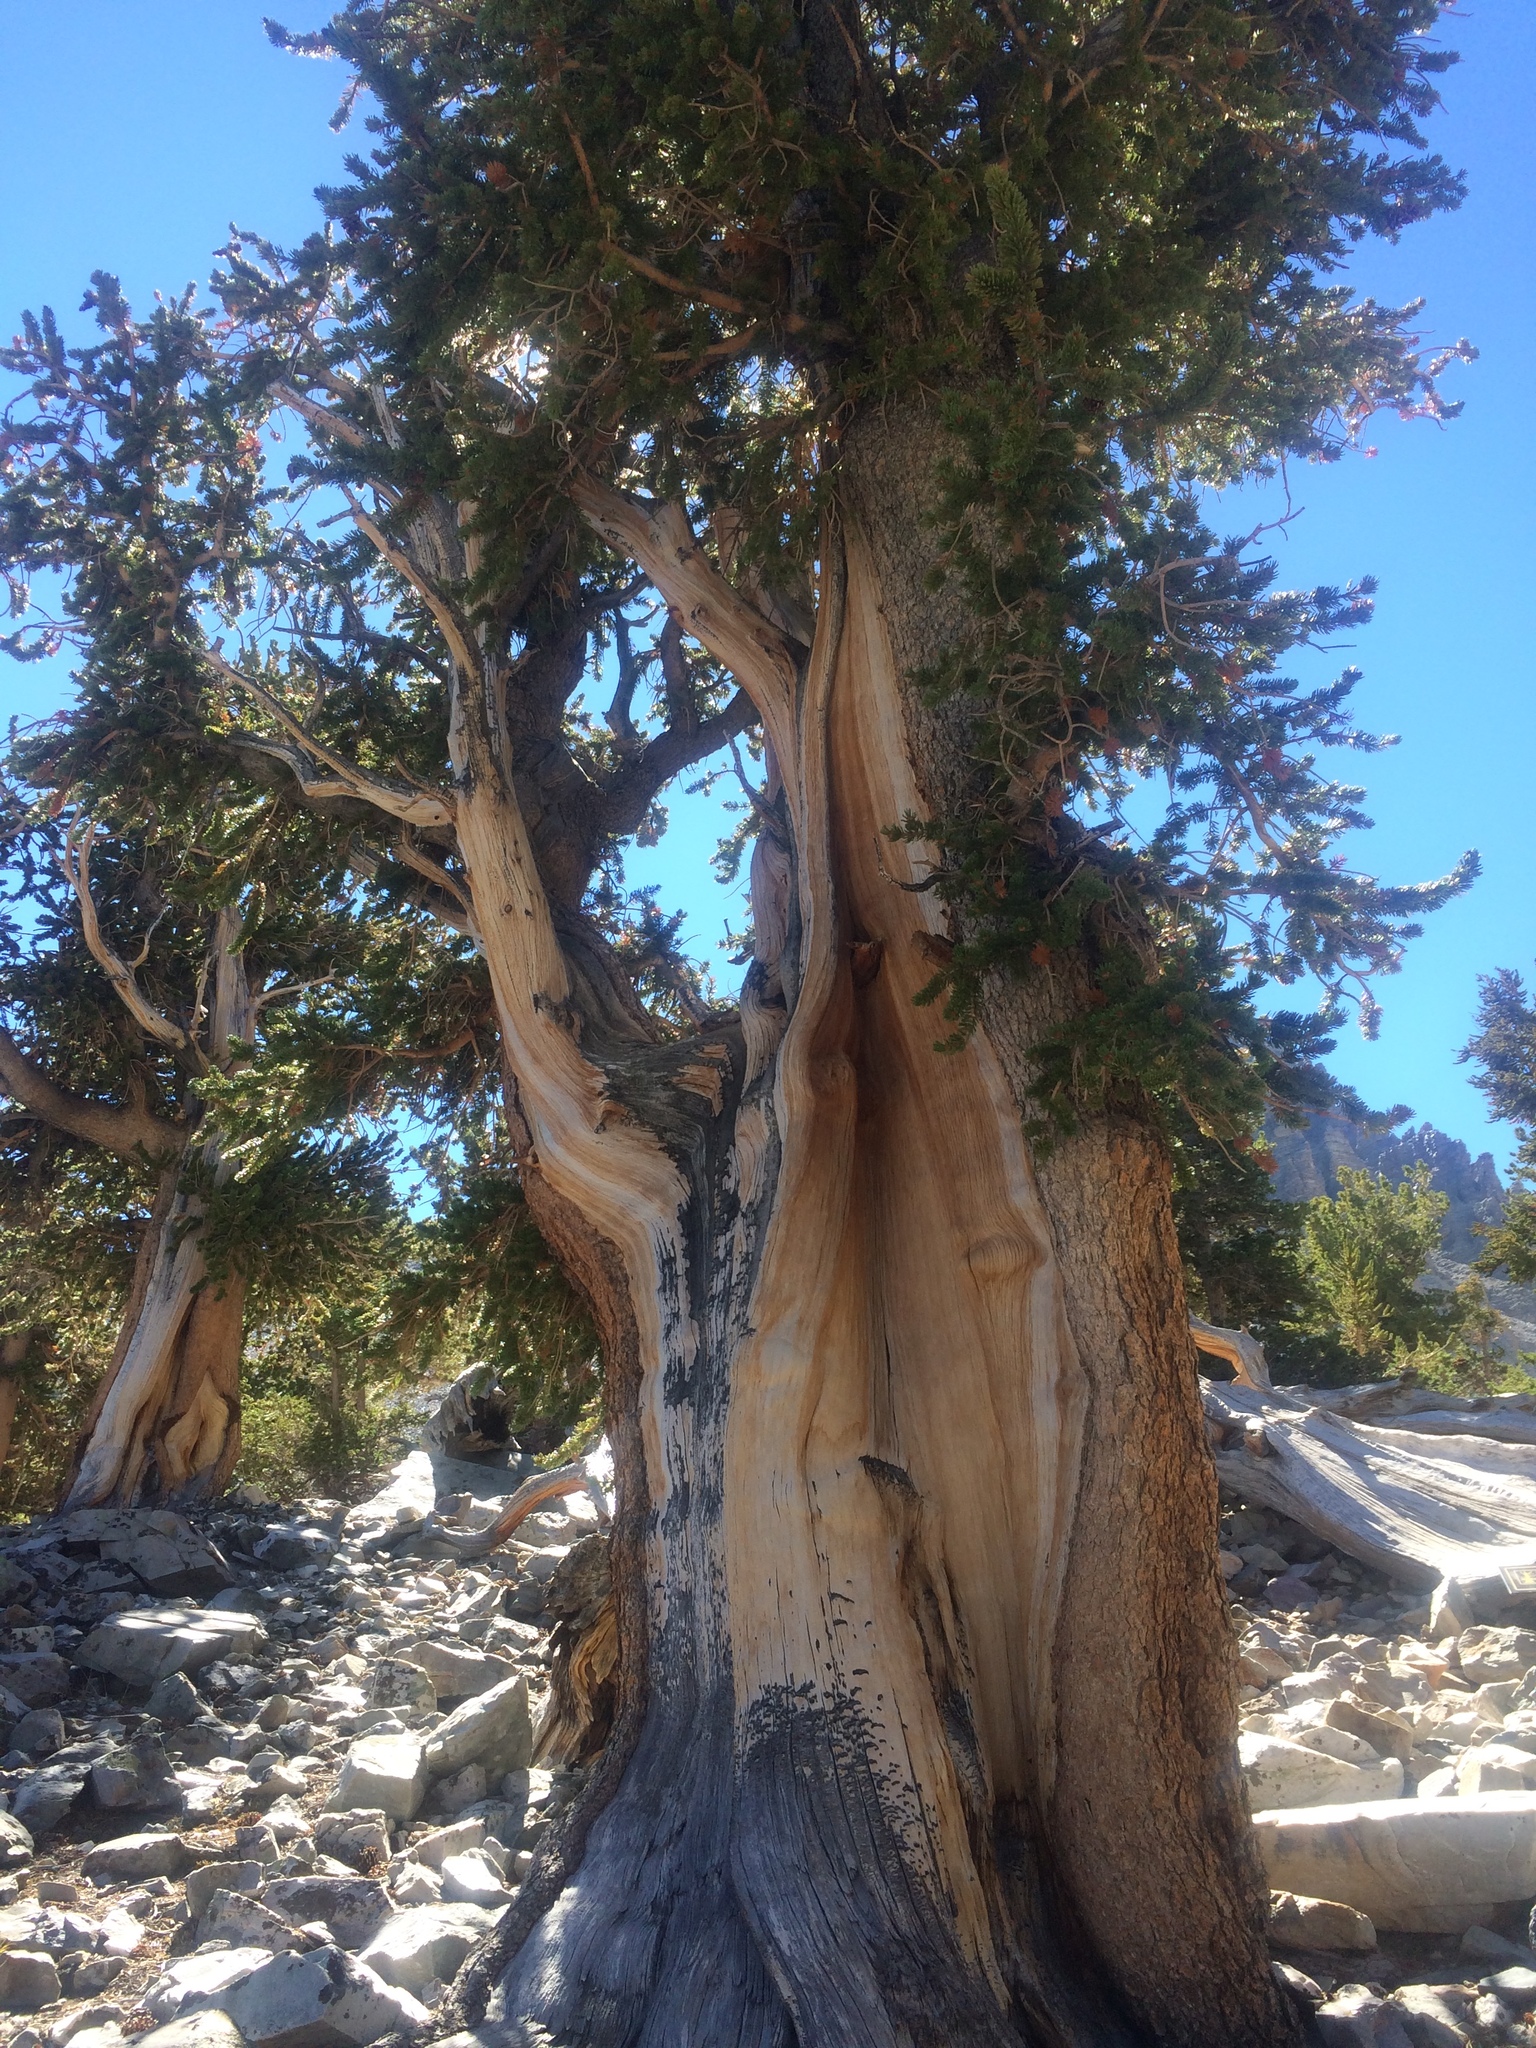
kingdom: Plantae
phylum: Tracheophyta
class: Pinopsida
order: Pinales
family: Pinaceae
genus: Pinus
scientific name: Pinus longaeva
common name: Intermountain bristlecone pine
